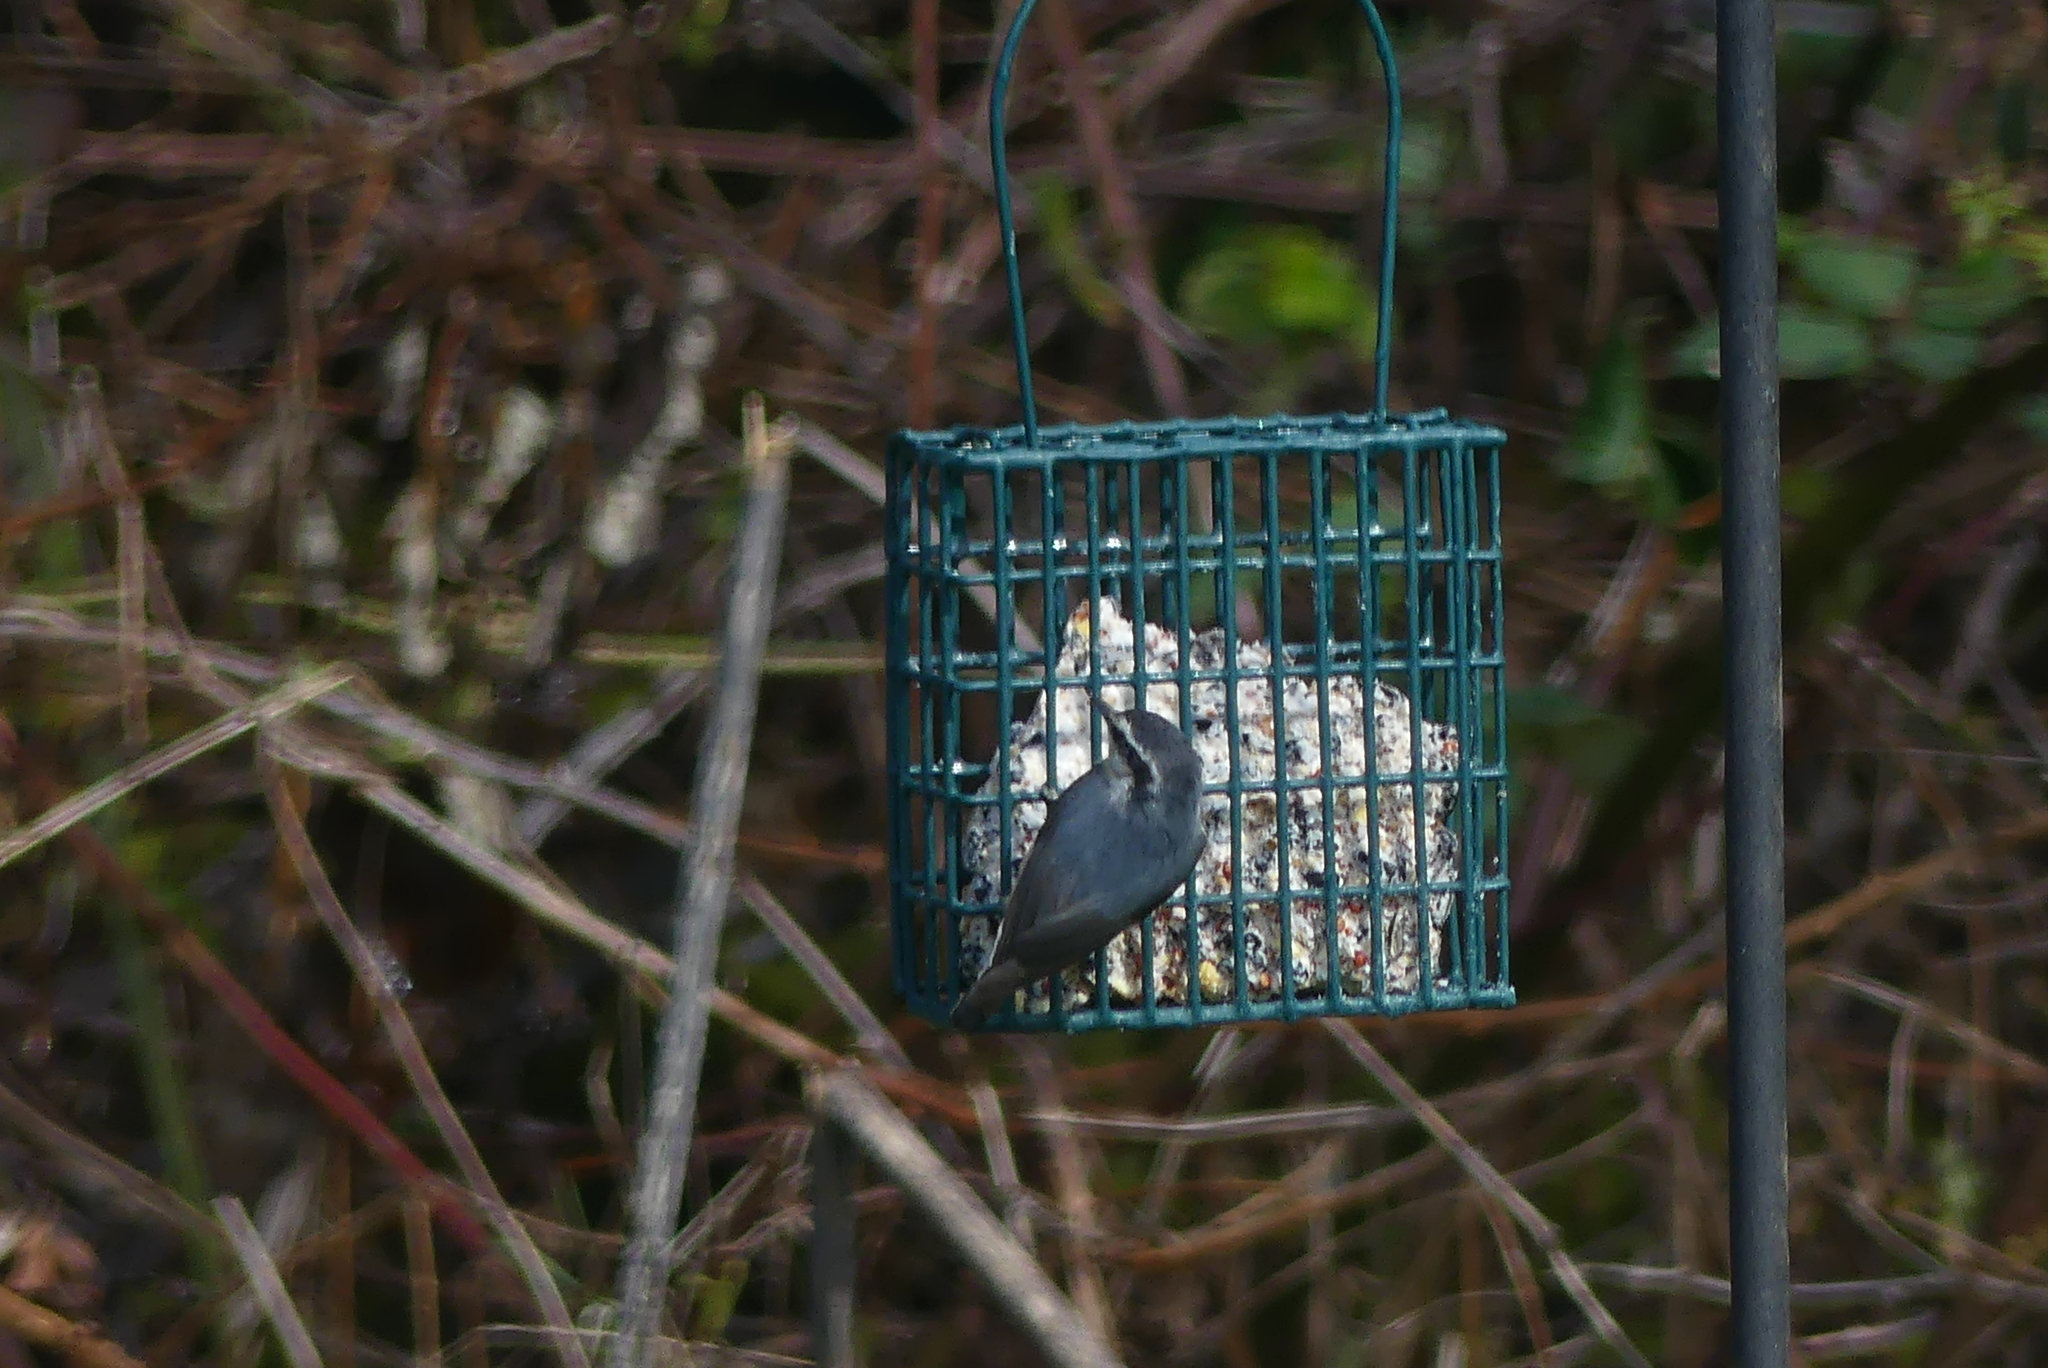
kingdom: Animalia
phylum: Chordata
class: Aves
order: Passeriformes
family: Sittidae
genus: Sitta
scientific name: Sitta canadensis
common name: Red-breasted nuthatch
